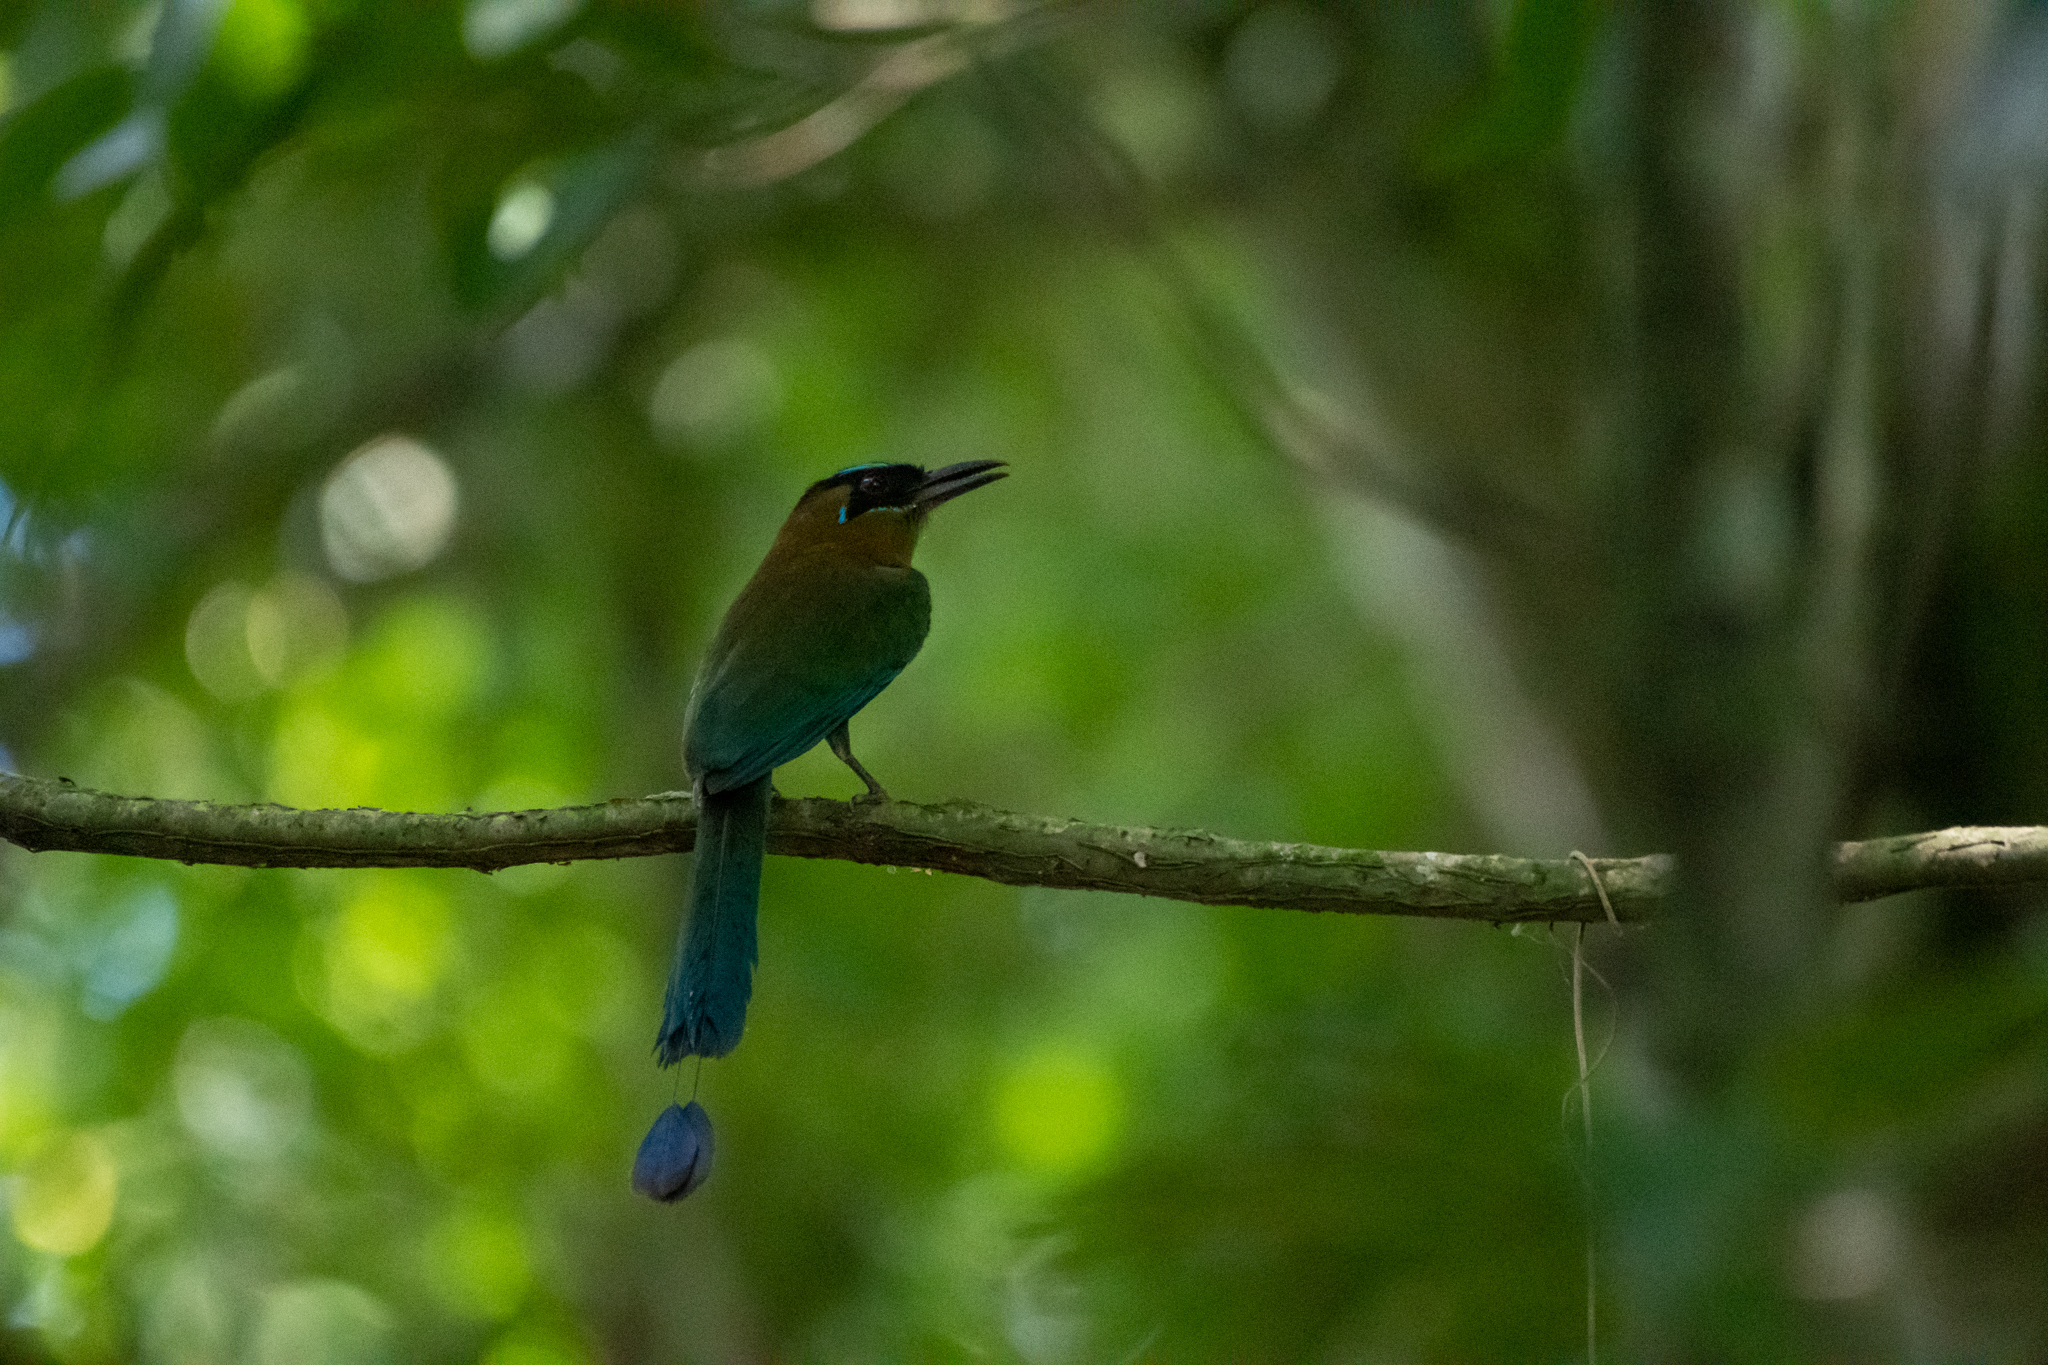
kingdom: Animalia
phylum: Chordata
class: Aves
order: Coraciiformes
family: Momotidae
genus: Momotus
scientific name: Momotus lessonii
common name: Lesson's motmot
